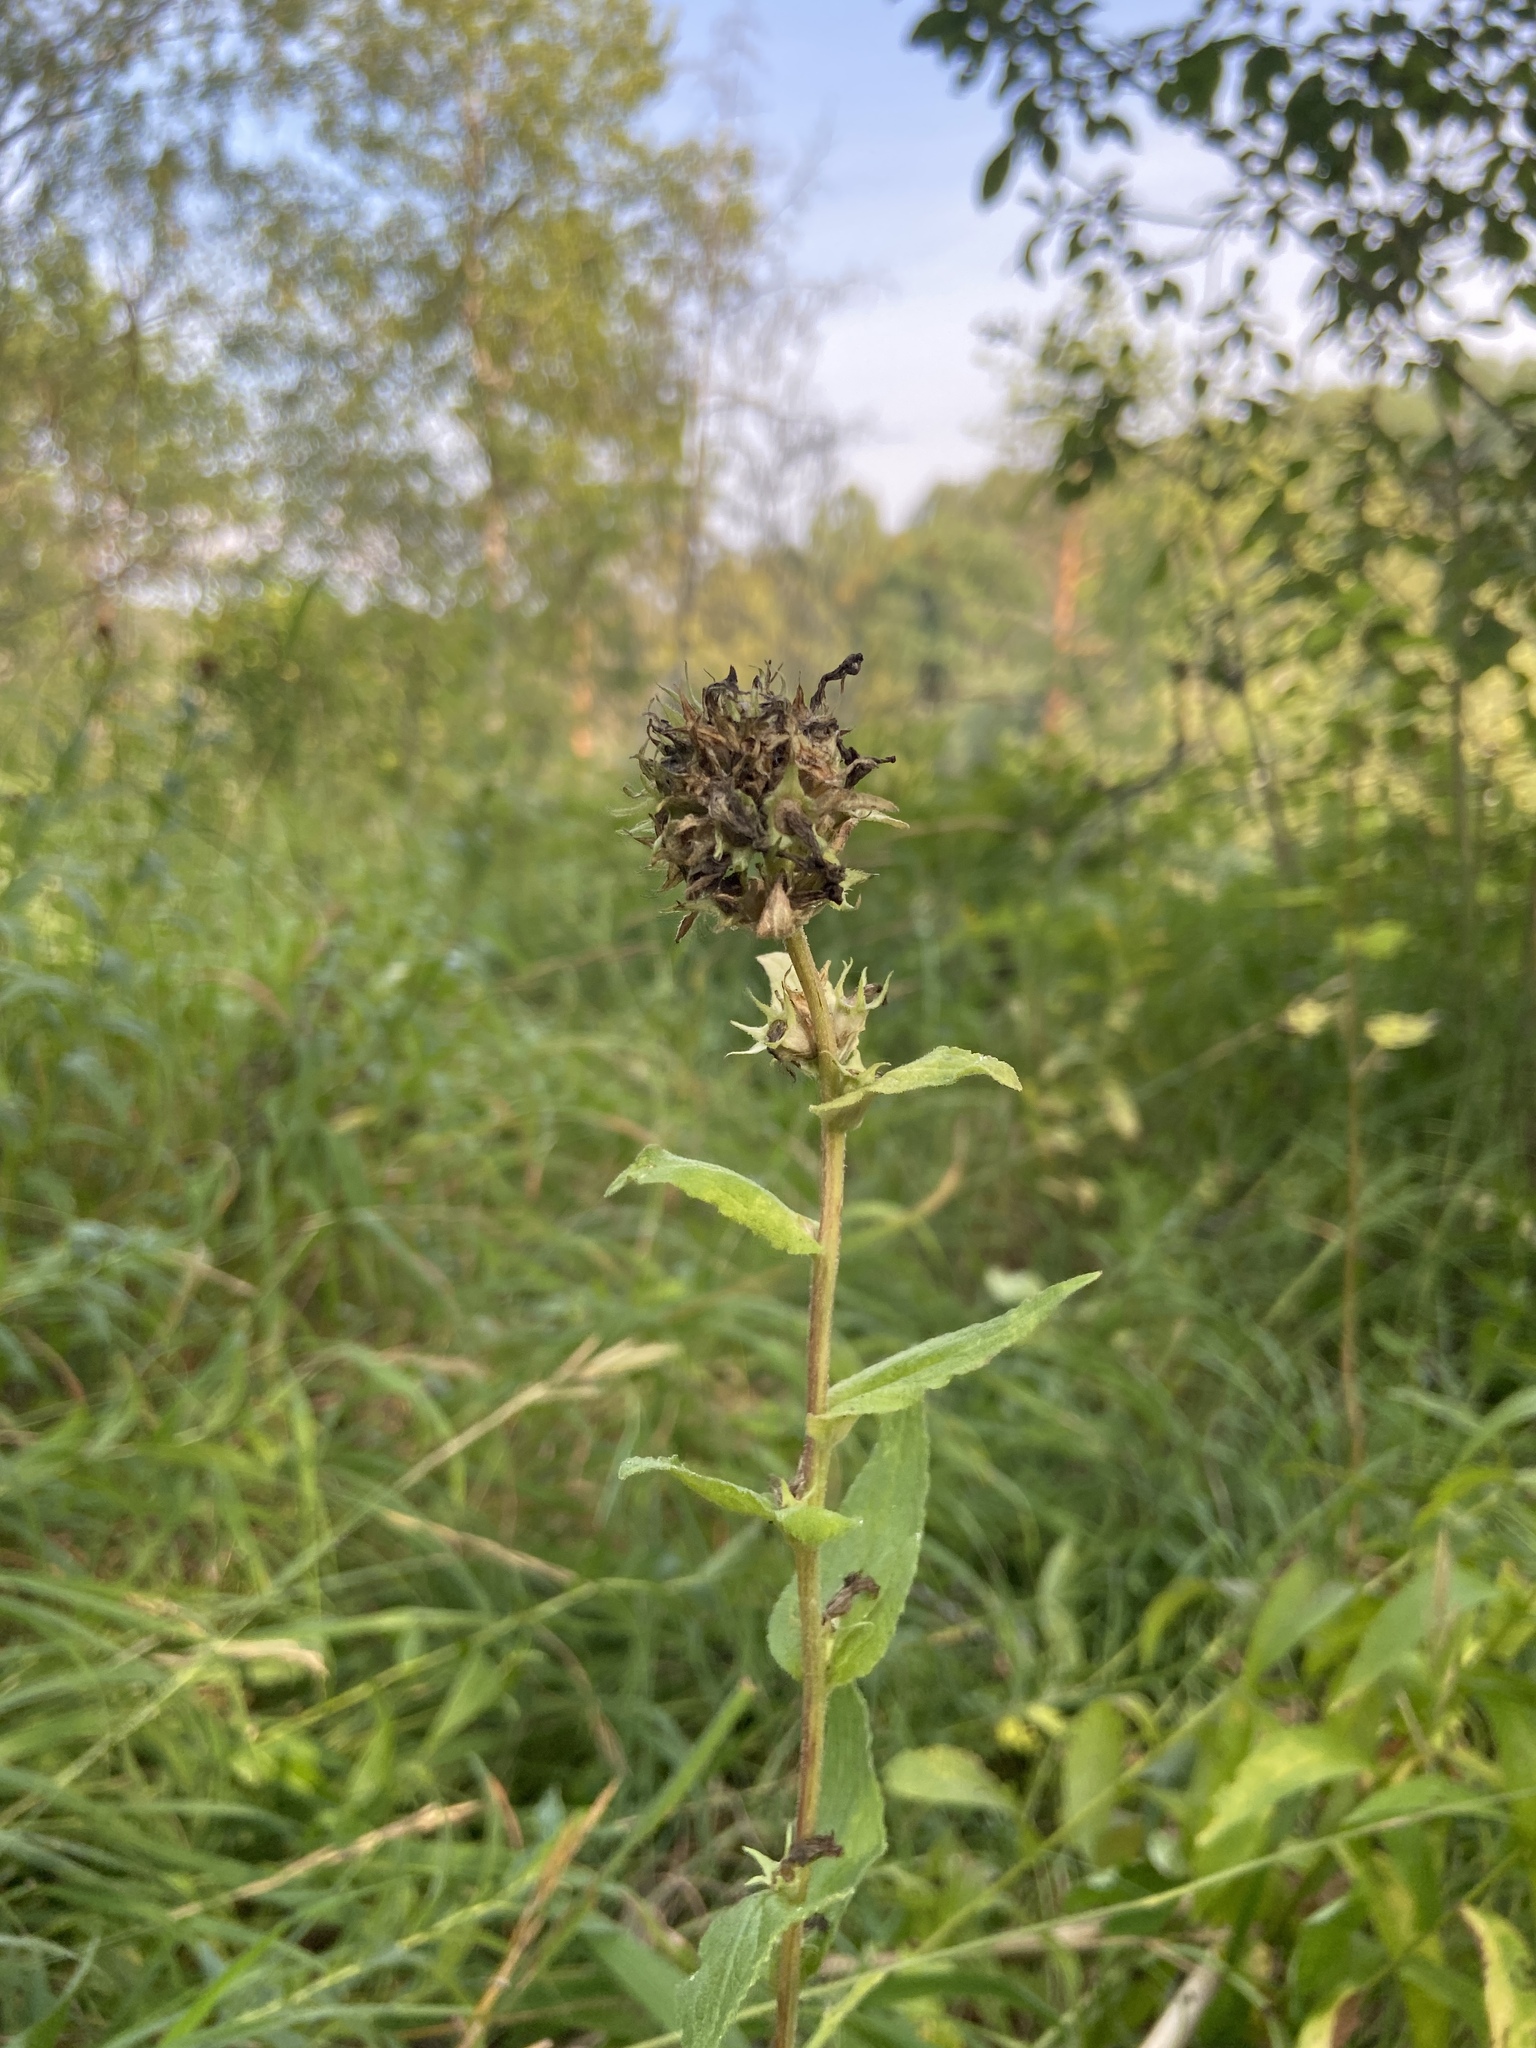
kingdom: Plantae
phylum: Tracheophyta
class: Magnoliopsida
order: Asterales
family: Campanulaceae
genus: Campanula
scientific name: Campanula glomerata
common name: Clustered bellflower
